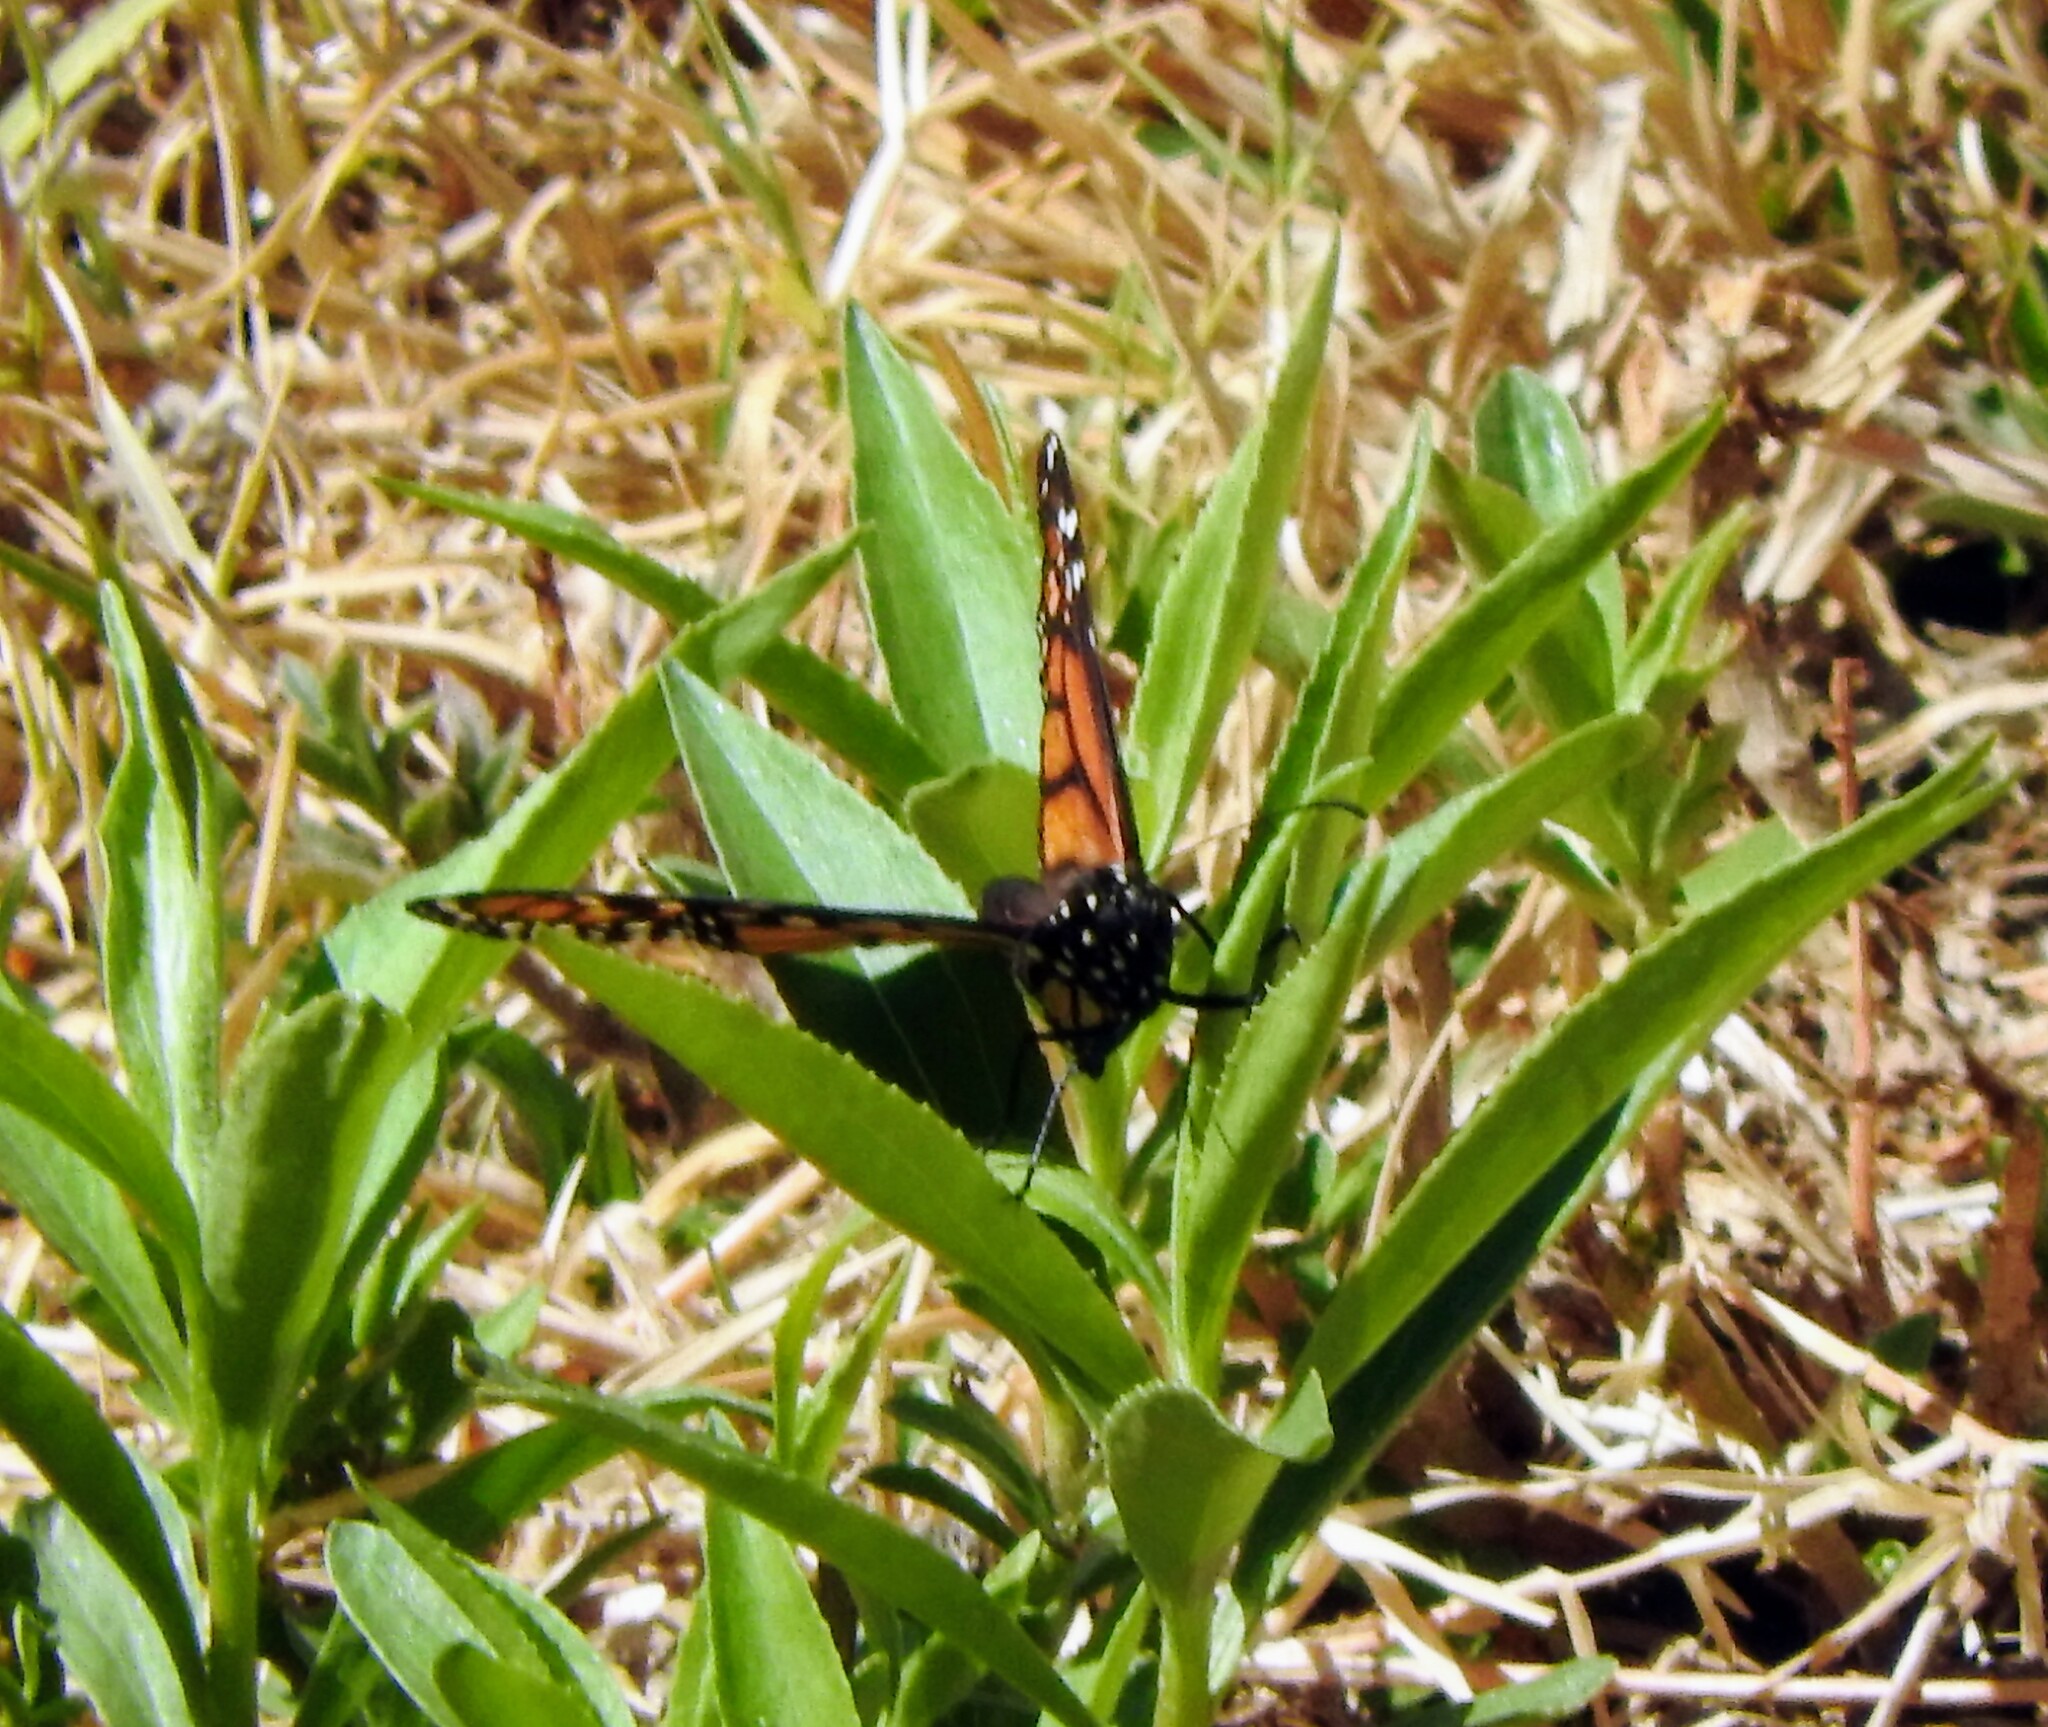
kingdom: Animalia
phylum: Arthropoda
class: Insecta
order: Lepidoptera
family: Nymphalidae
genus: Danaus
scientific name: Danaus plexippus
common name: Monarch
